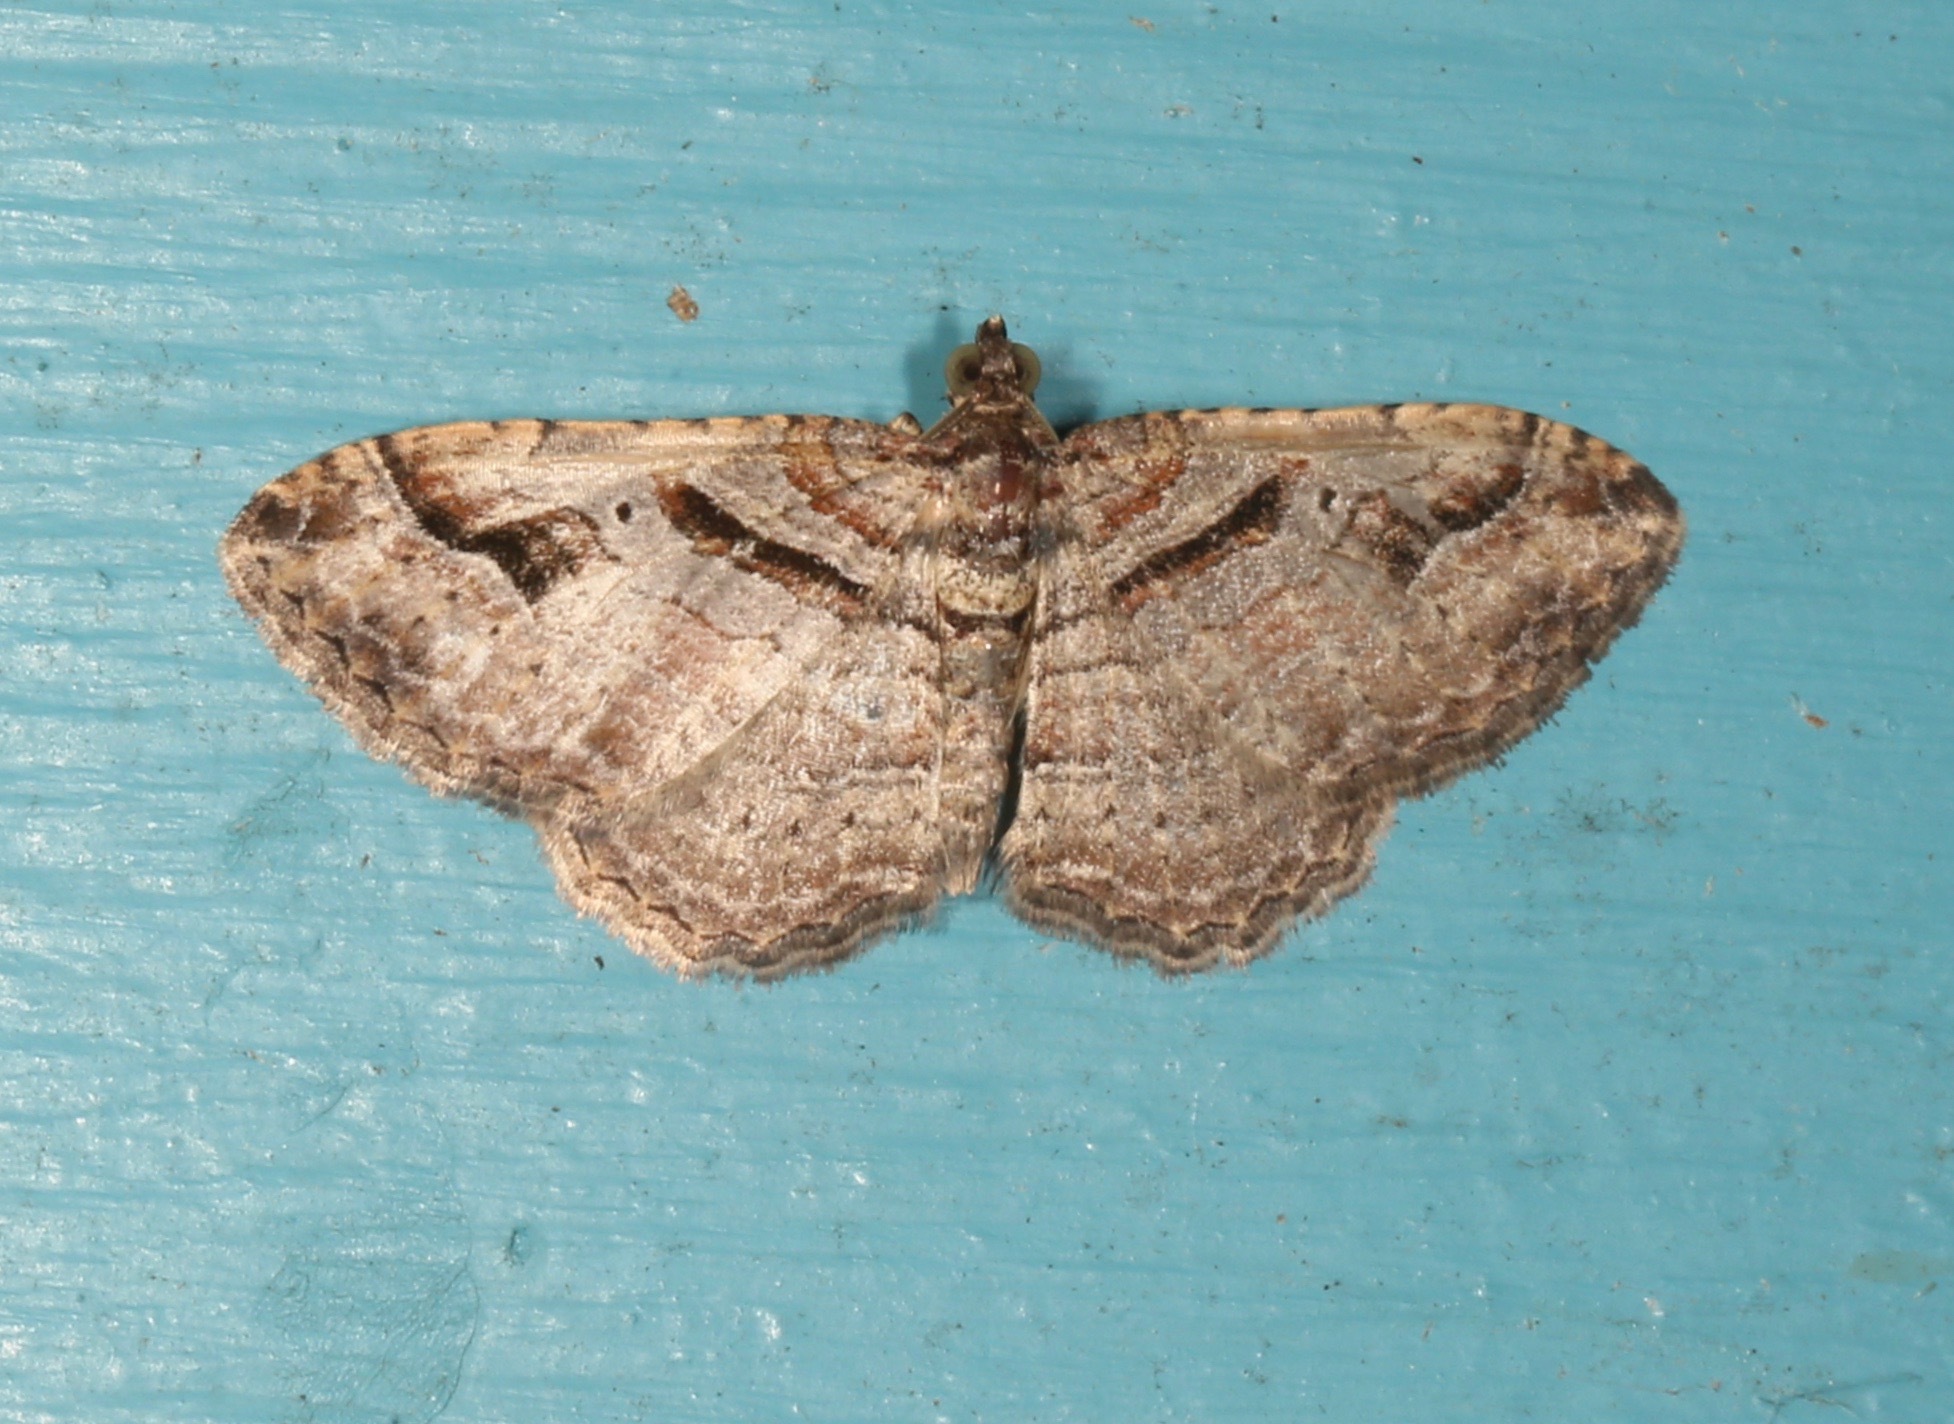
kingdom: Animalia
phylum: Arthropoda
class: Insecta
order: Lepidoptera
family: Geometridae
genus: Costaconvexa
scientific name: Costaconvexa centrostrigaria
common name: Bent-line carpet
